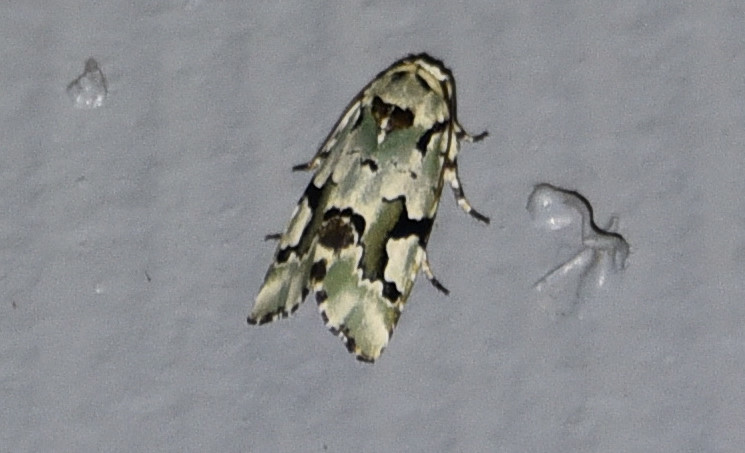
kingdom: Animalia
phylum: Arthropoda
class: Insecta
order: Lepidoptera
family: Noctuidae
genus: Emarginea
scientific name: Emarginea percara
